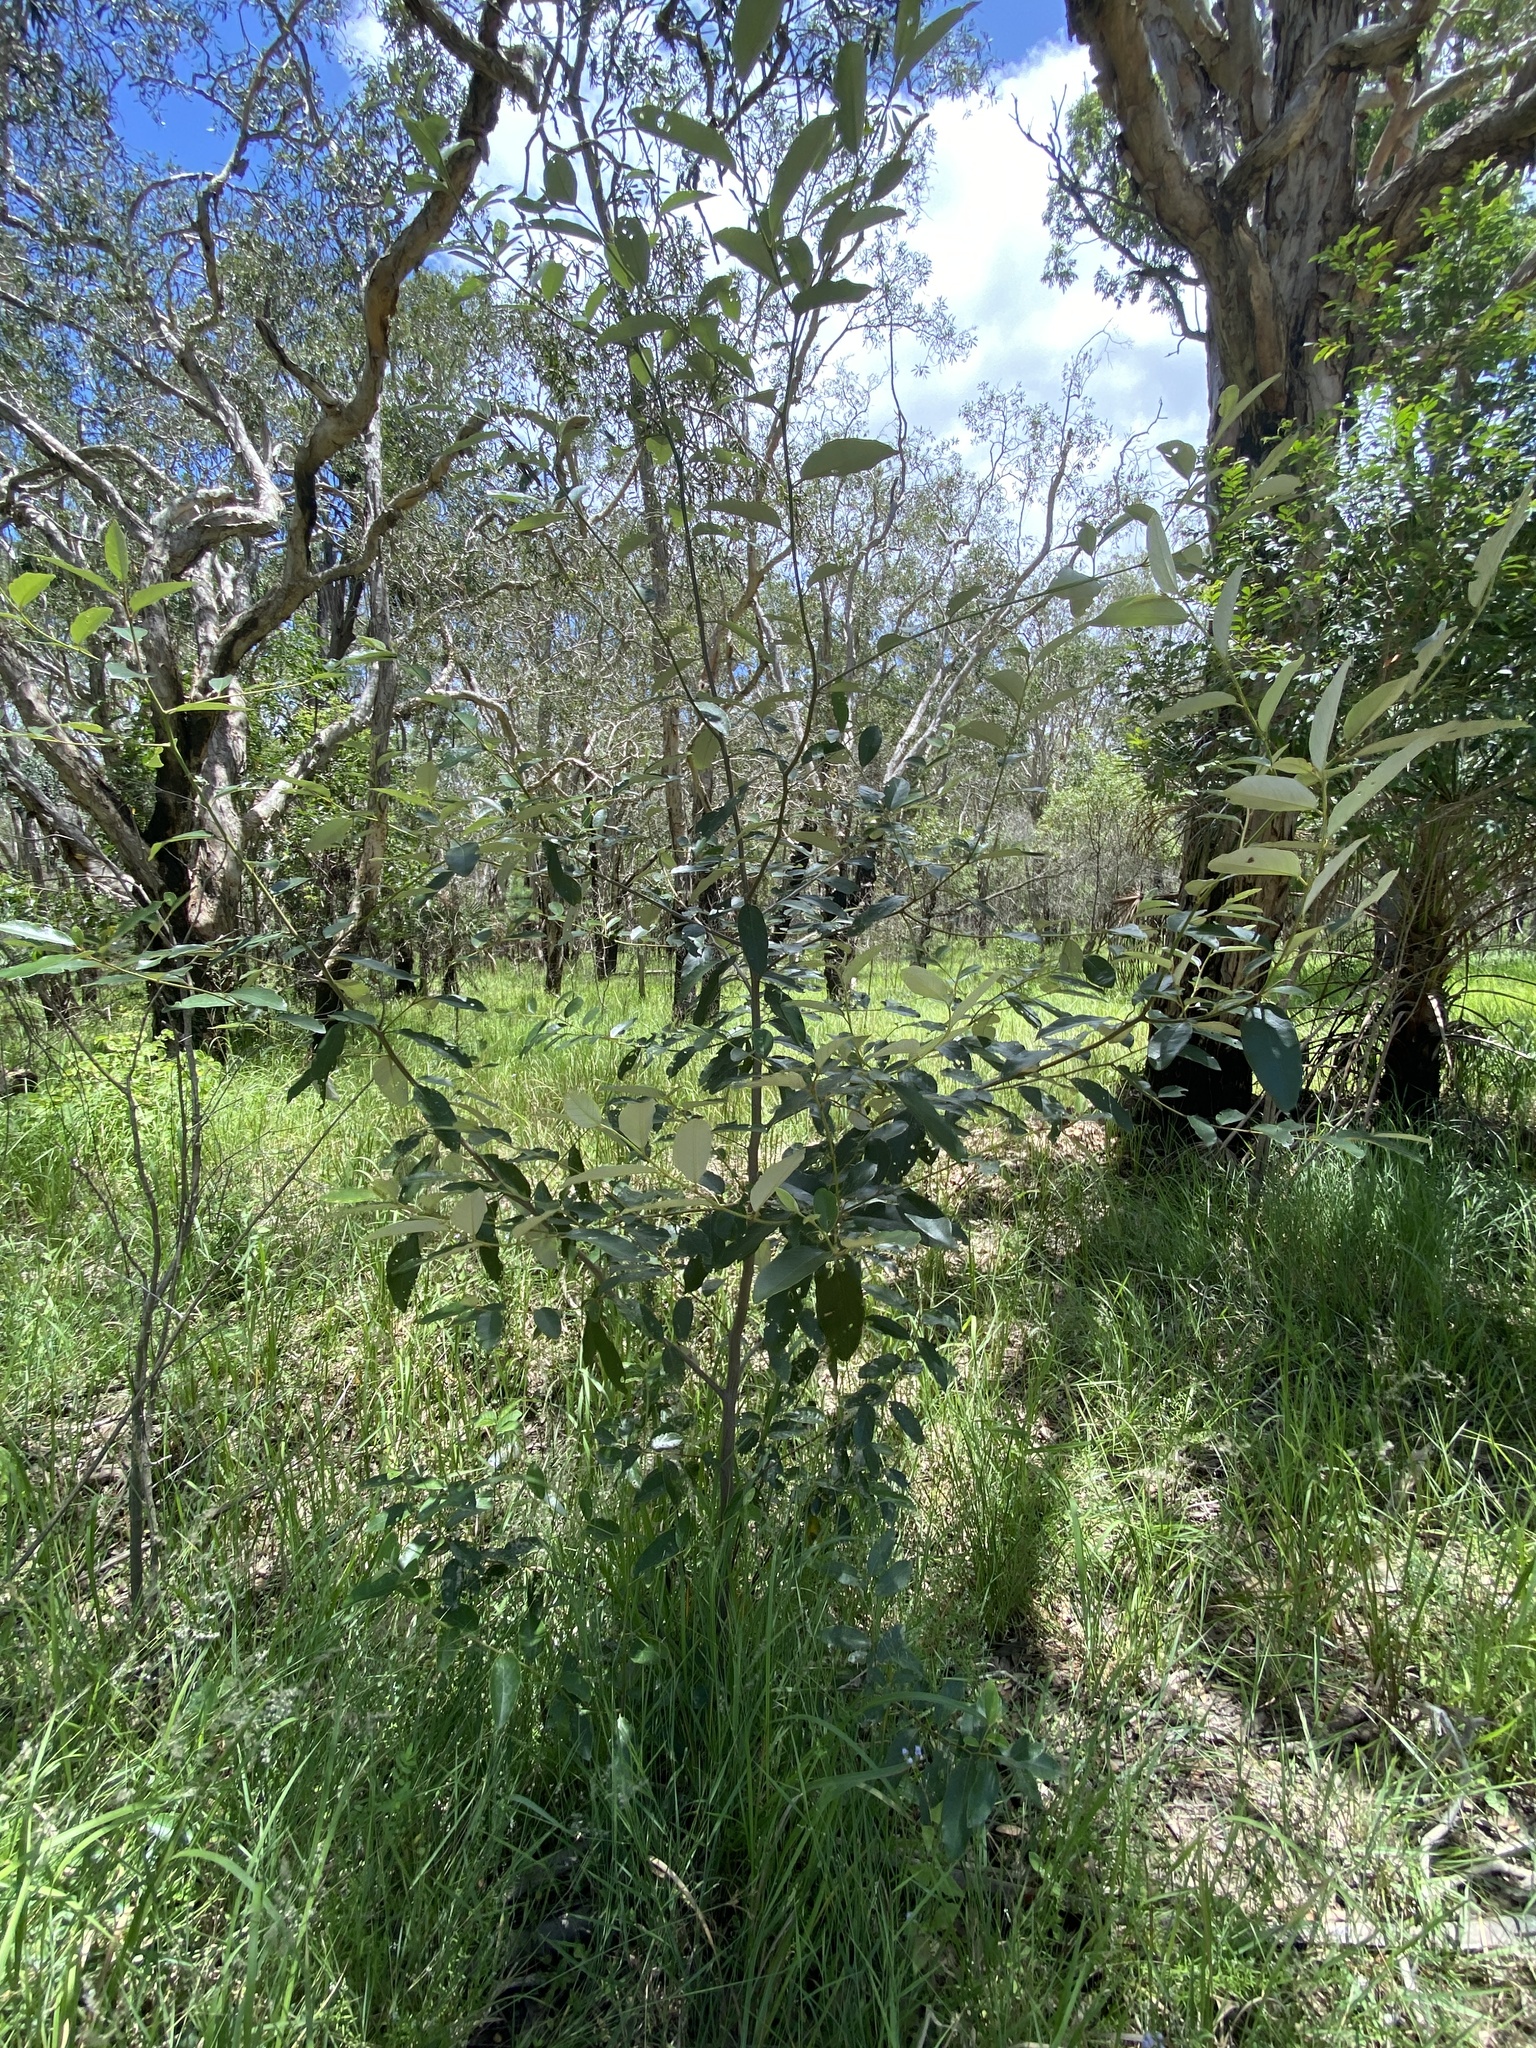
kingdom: Plantae
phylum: Tracheophyta
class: Magnoliopsida
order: Rosales
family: Rhamnaceae
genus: Alphitonia
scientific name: Alphitonia excelsa
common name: Red ash
